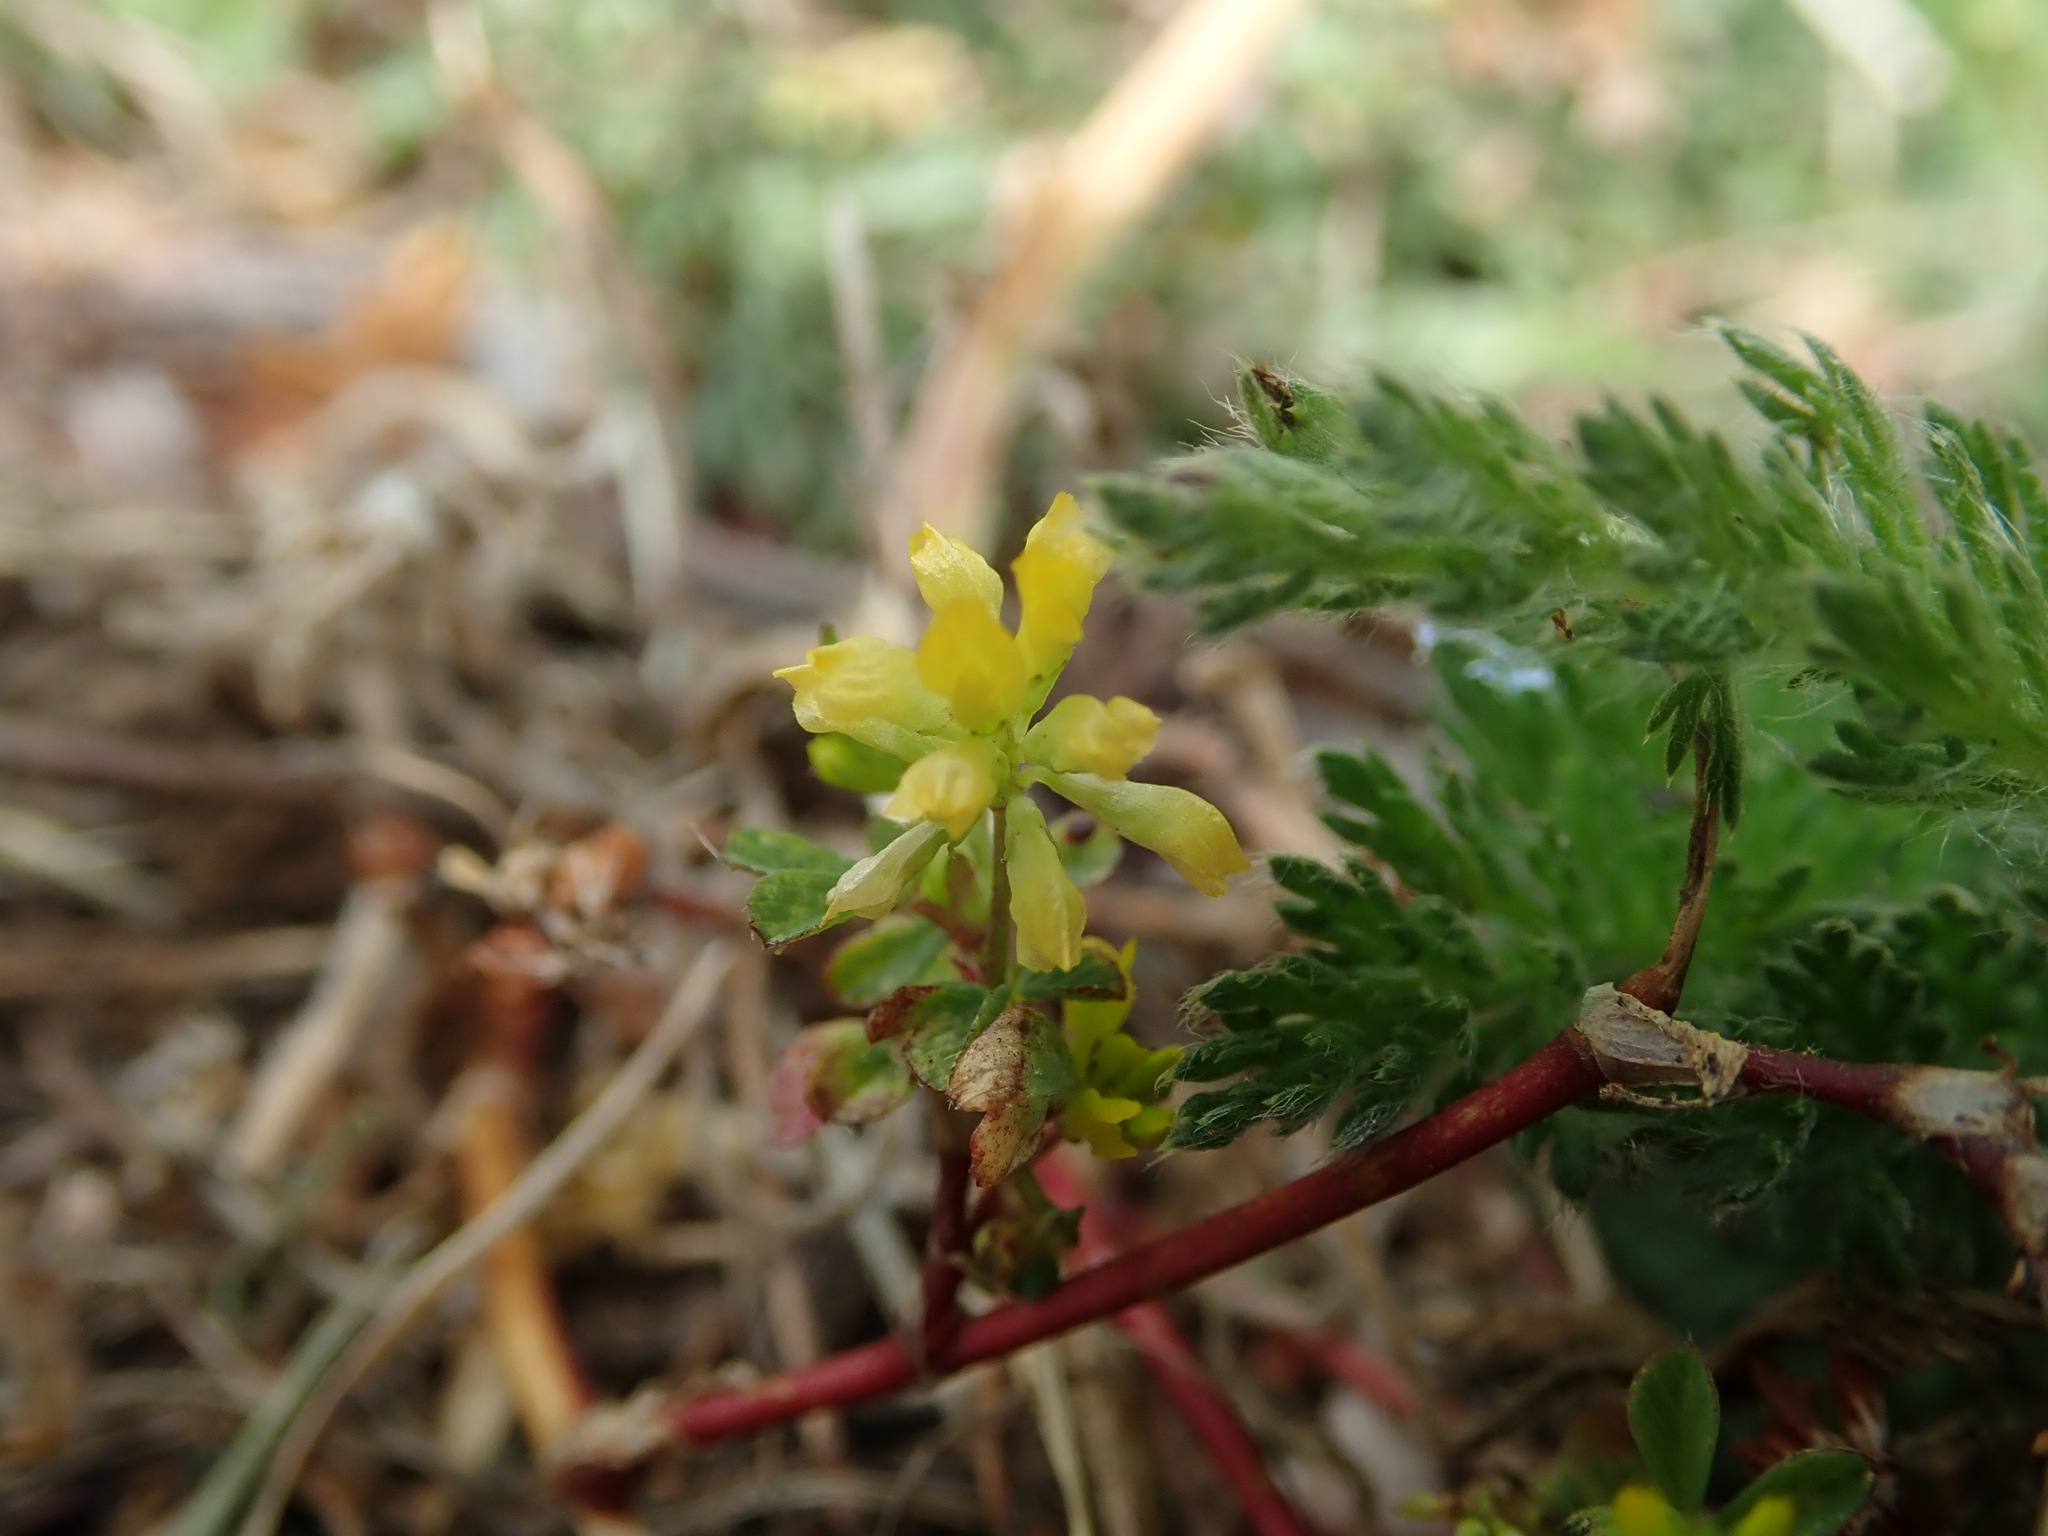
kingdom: Plantae
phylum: Tracheophyta
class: Magnoliopsida
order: Fabales
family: Fabaceae
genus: Trifolium
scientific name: Trifolium dubium
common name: Suckling clover
